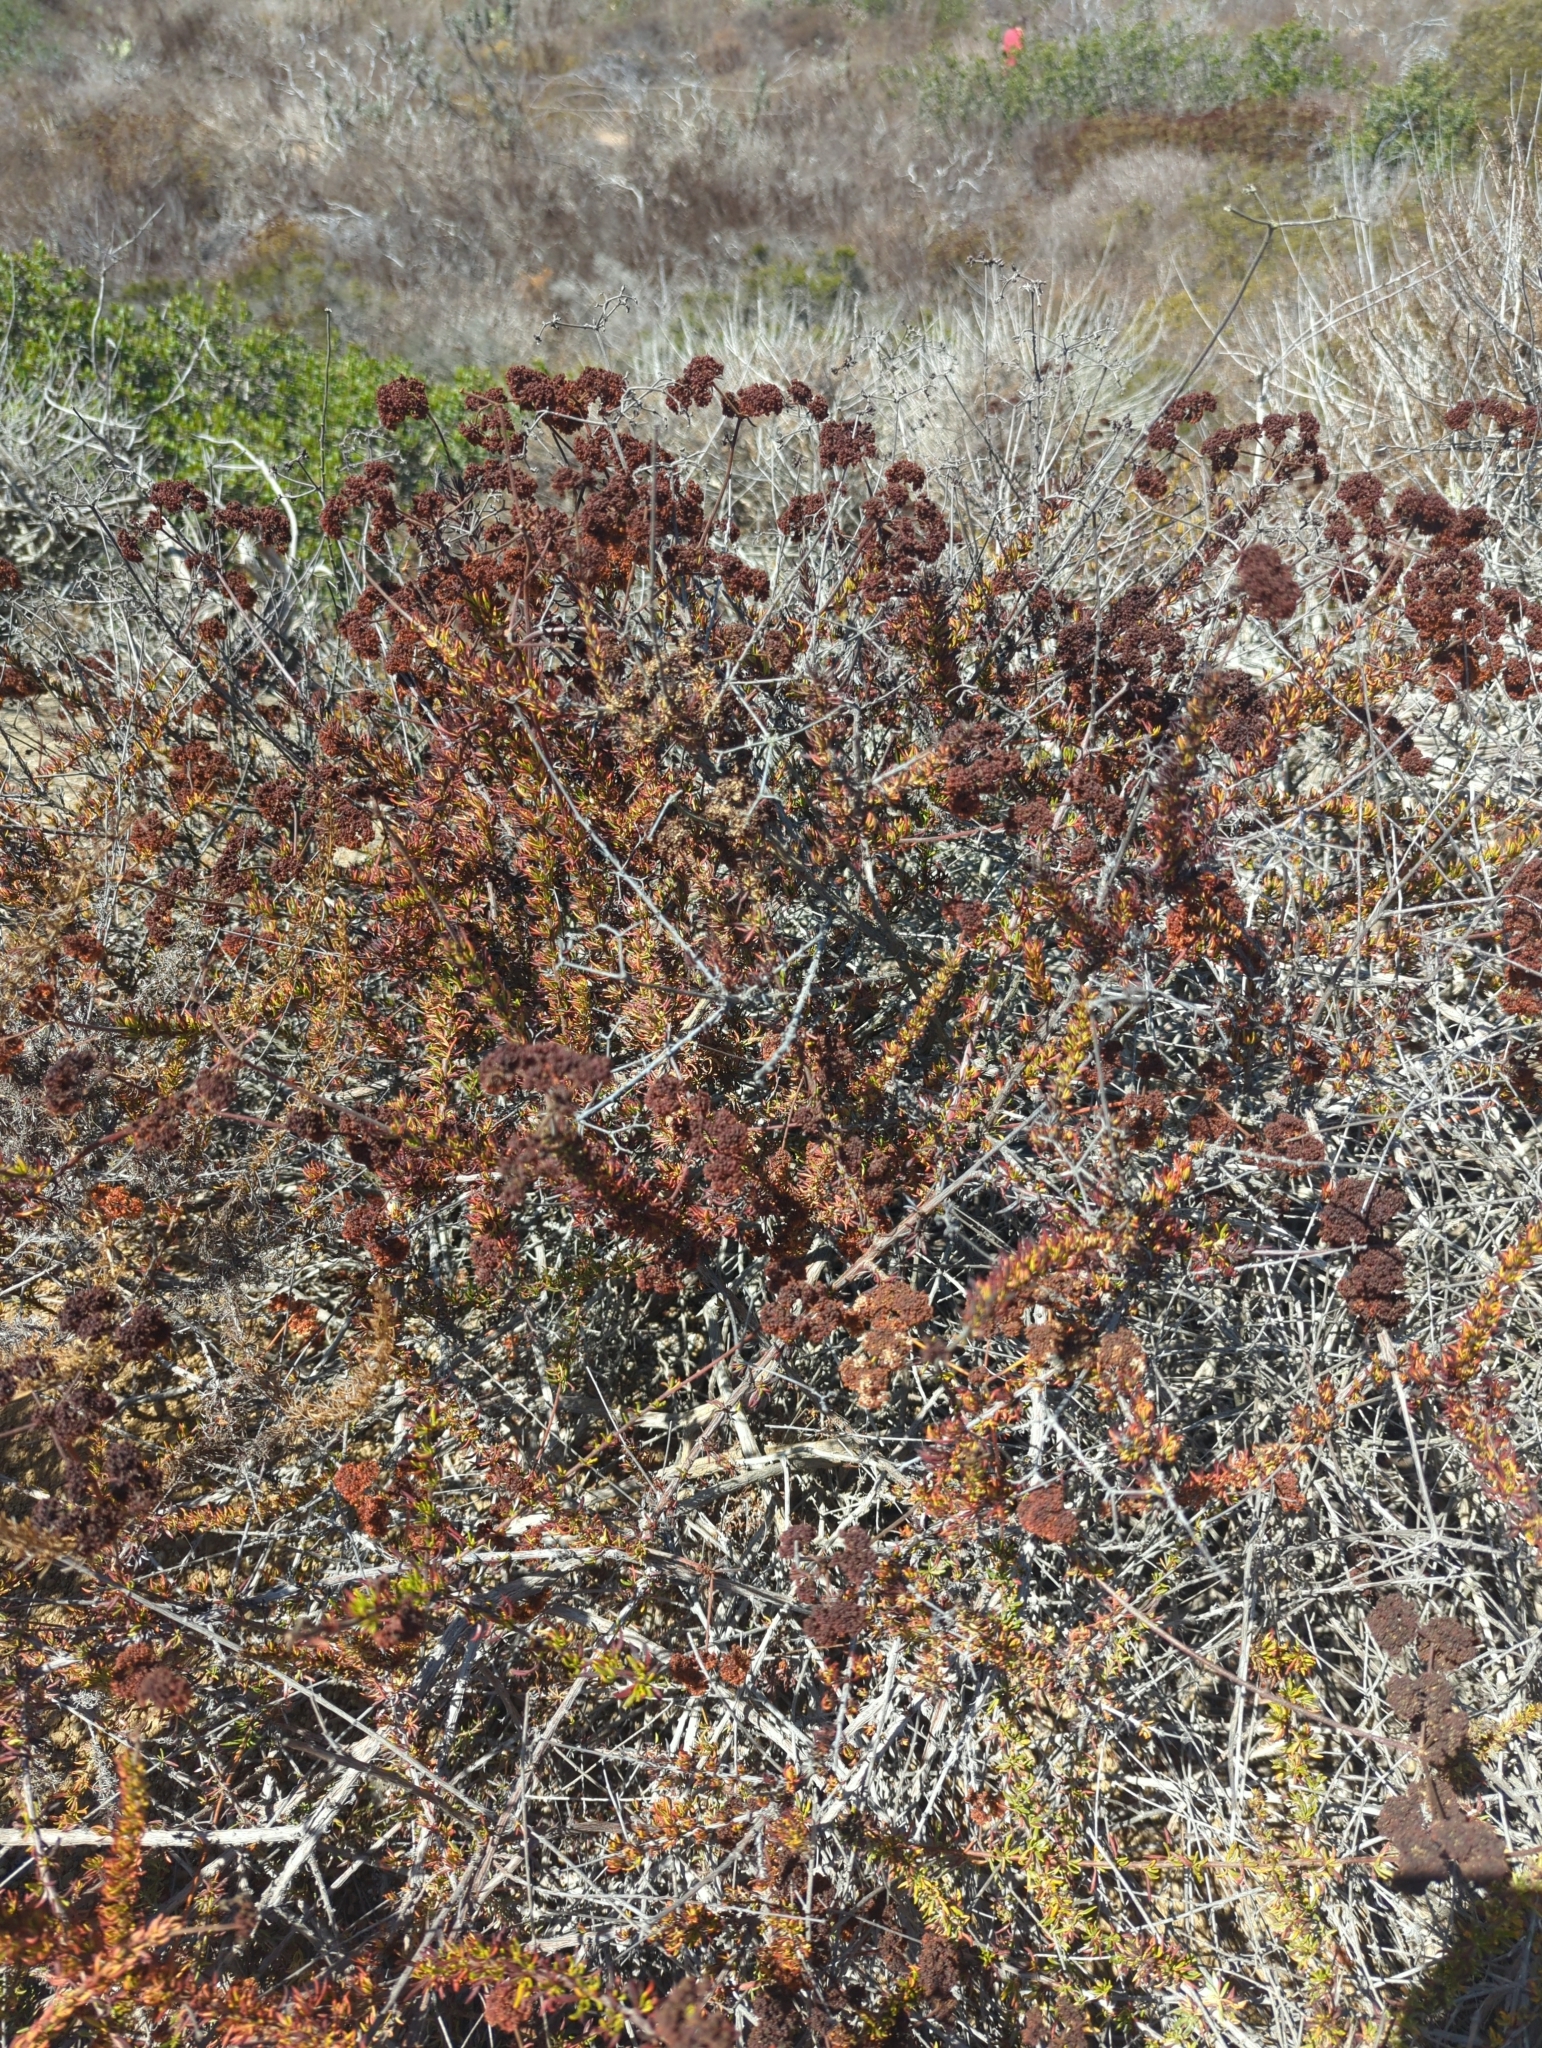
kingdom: Plantae
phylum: Tracheophyta
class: Magnoliopsida
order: Caryophyllales
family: Polygonaceae
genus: Eriogonum
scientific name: Eriogonum fasciculatum
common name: California wild buckwheat
